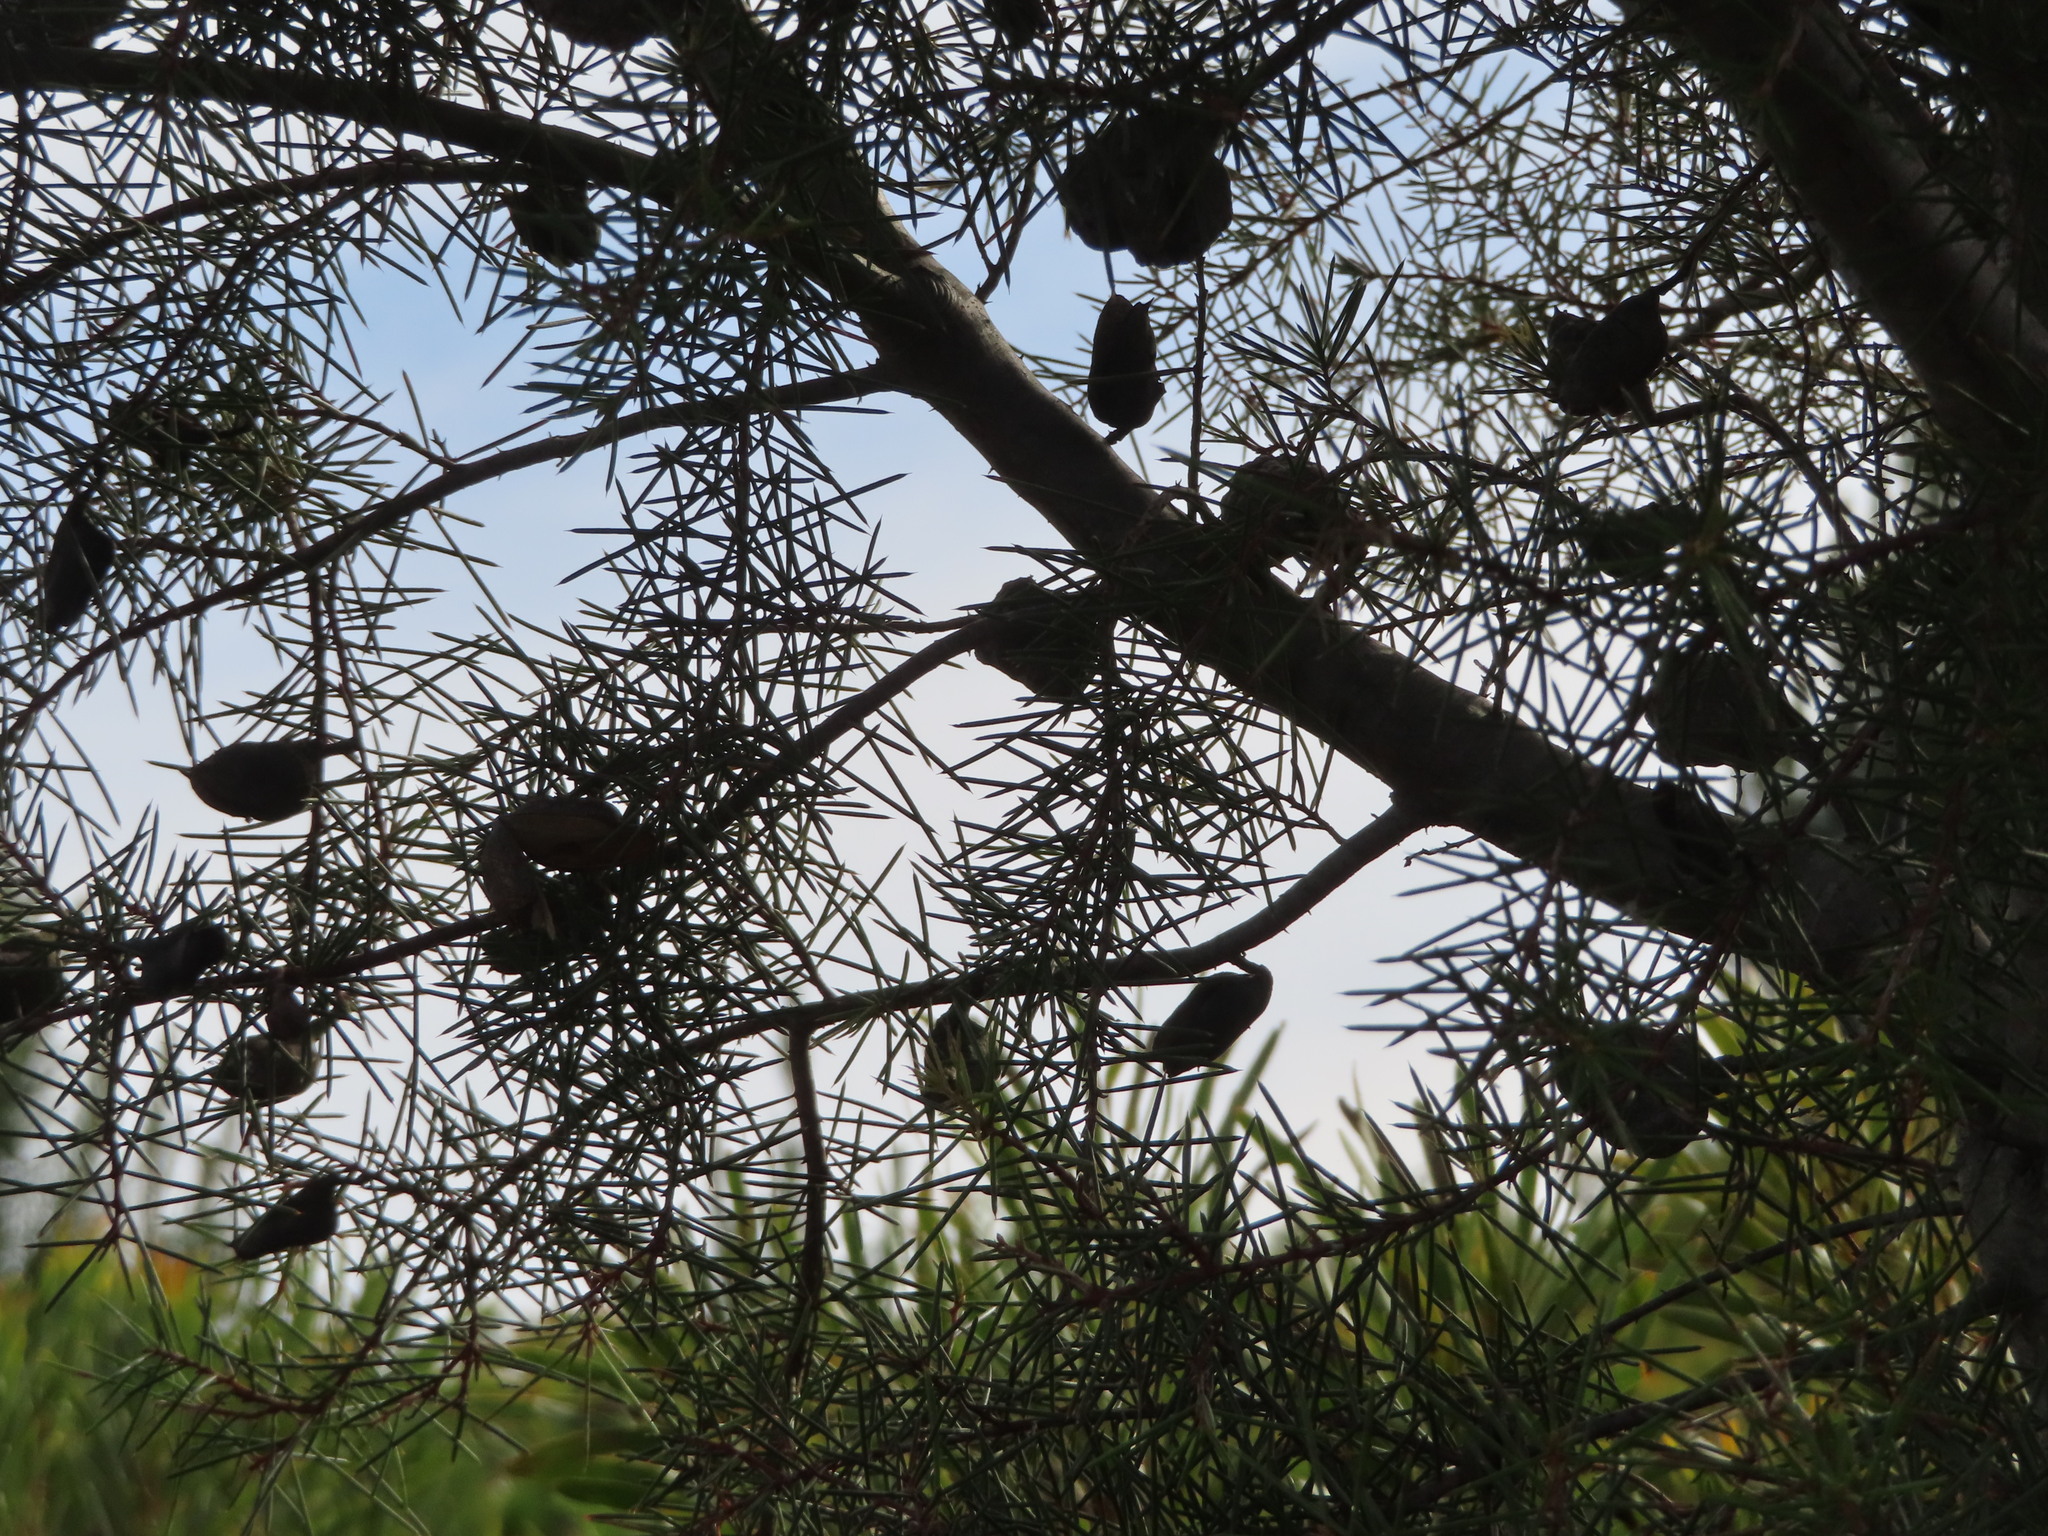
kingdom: Plantae
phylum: Tracheophyta
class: Magnoliopsida
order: Proteales
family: Proteaceae
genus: Hakea
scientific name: Hakea sericea
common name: Needle bush
